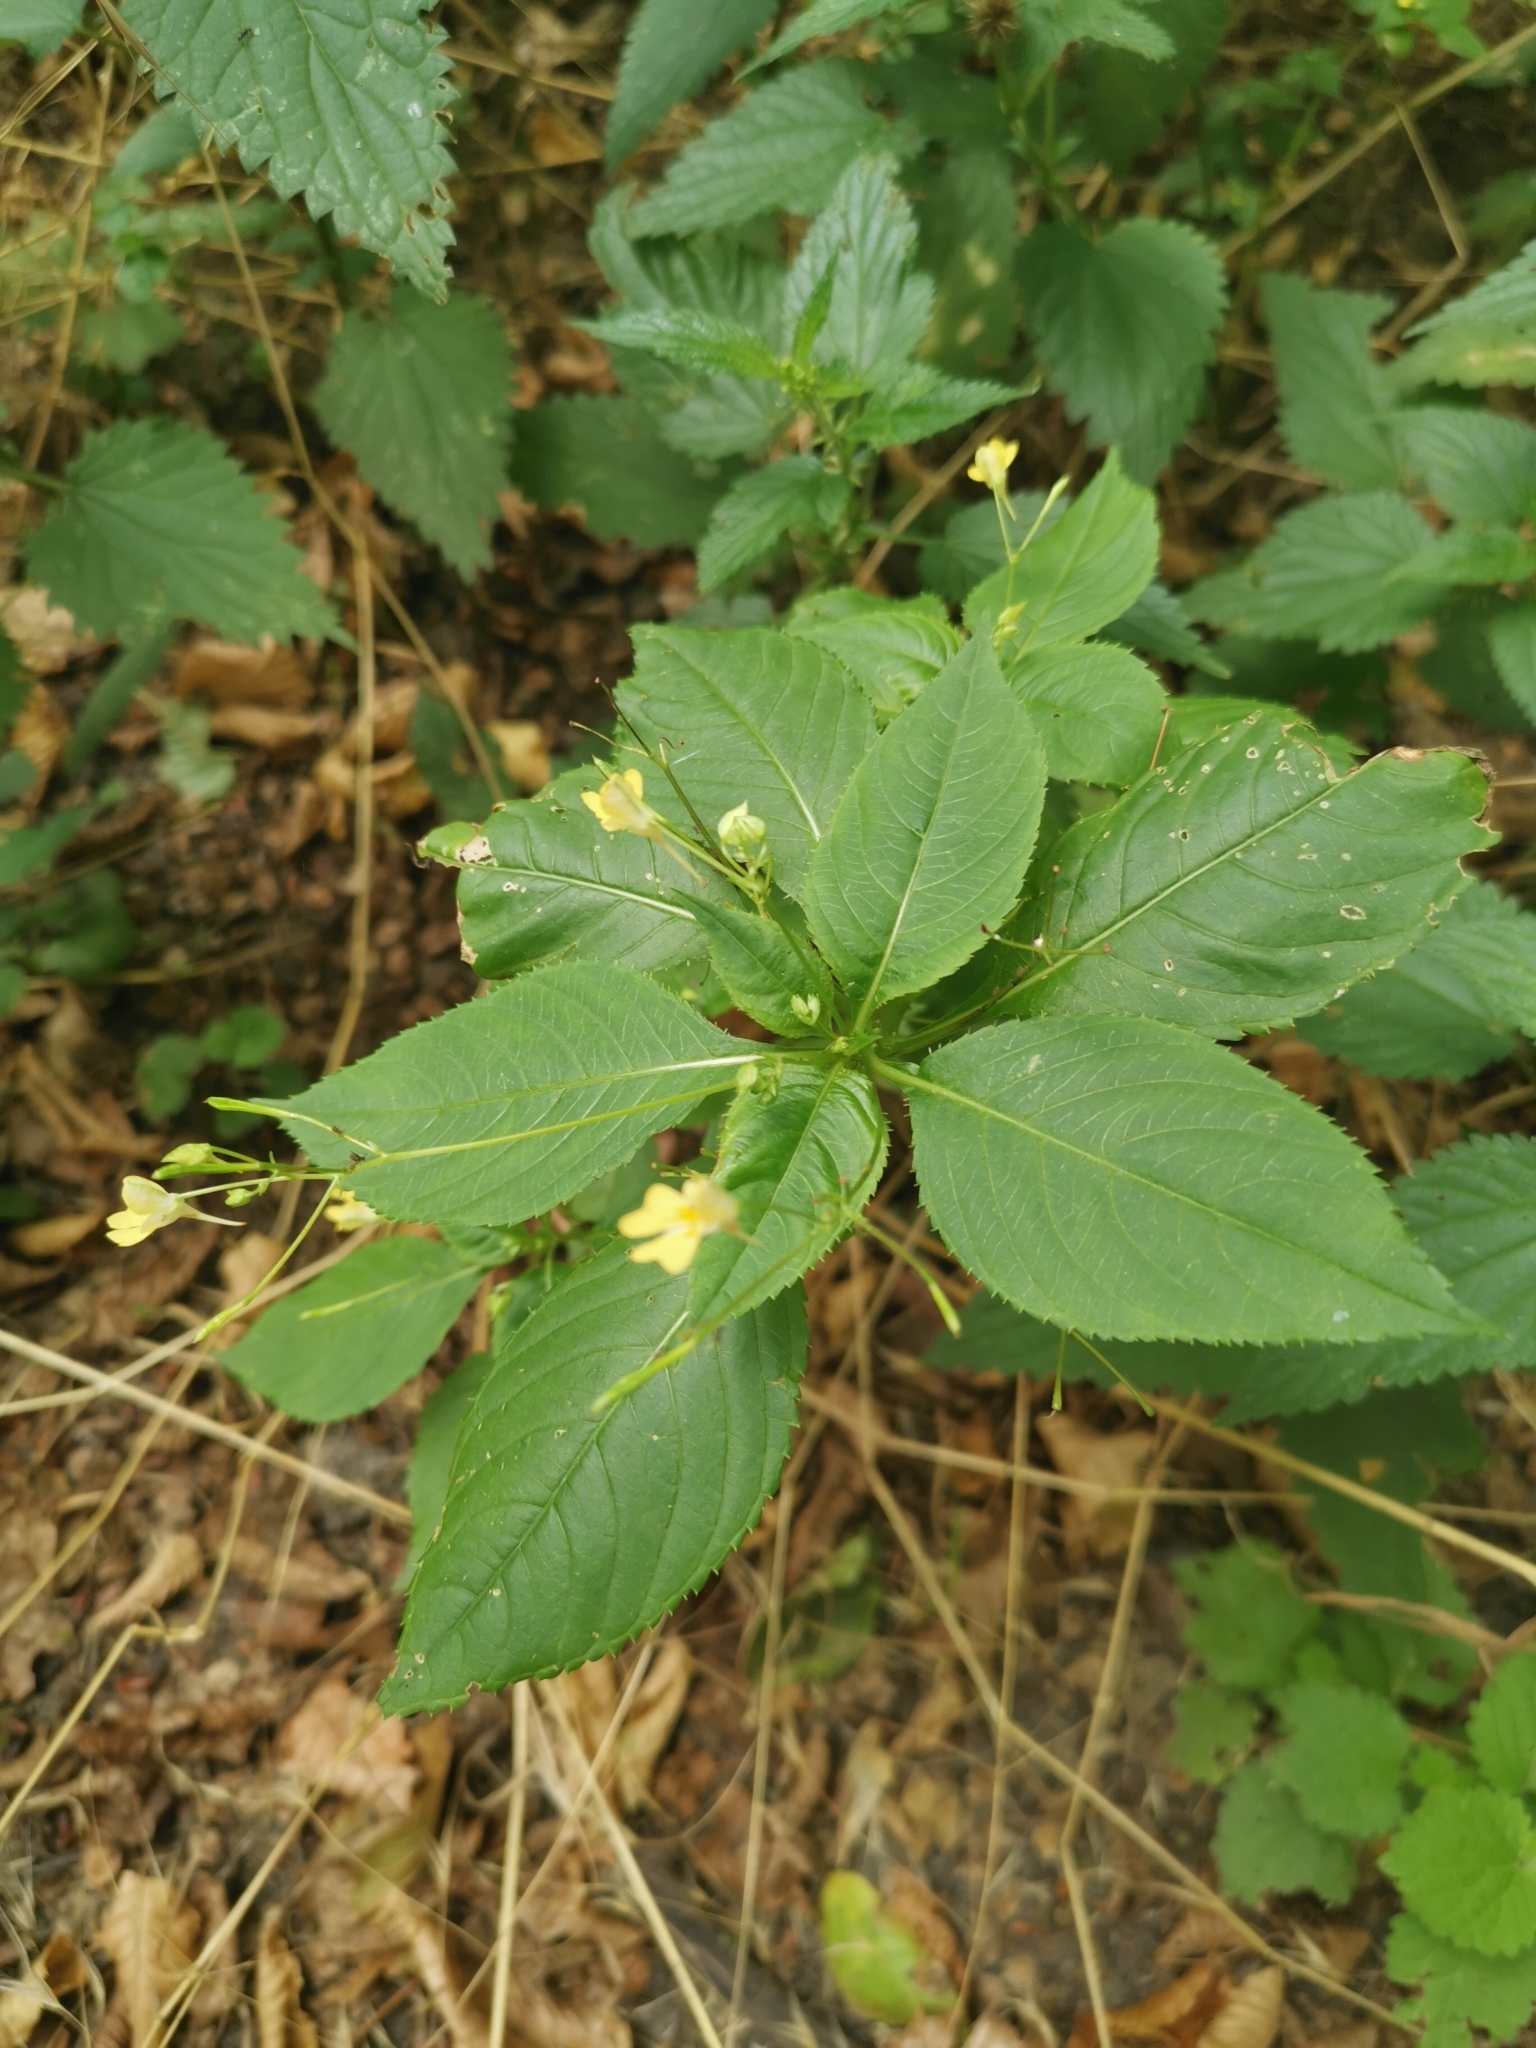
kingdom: Plantae
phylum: Tracheophyta
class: Magnoliopsida
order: Ericales
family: Balsaminaceae
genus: Impatiens
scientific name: Impatiens parviflora
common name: Small balsam
